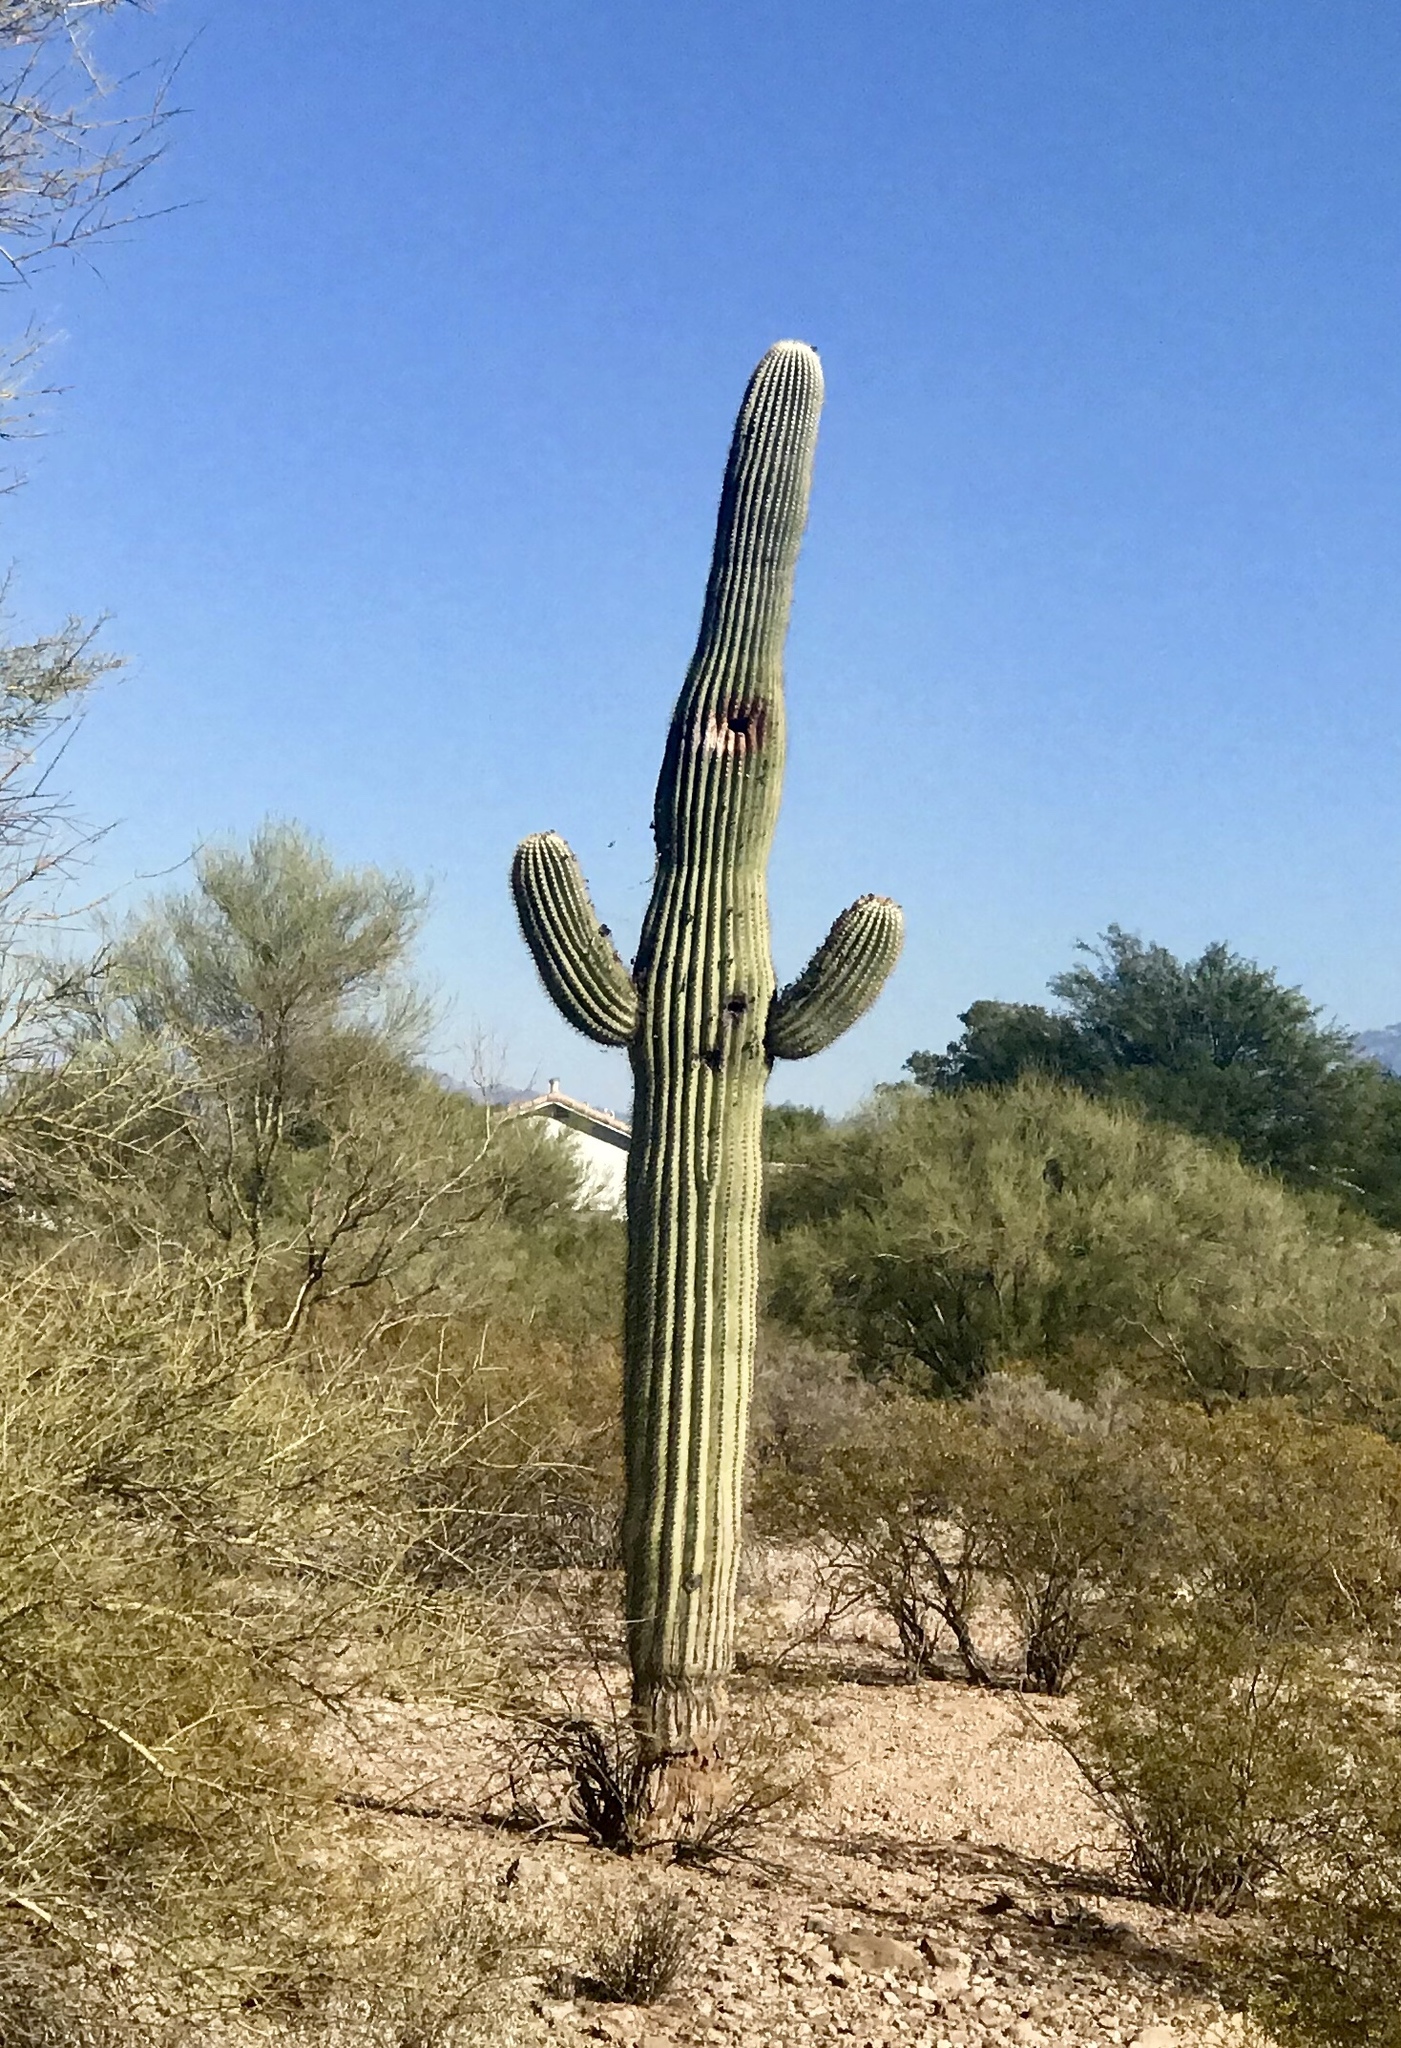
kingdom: Plantae
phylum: Tracheophyta
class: Magnoliopsida
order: Caryophyllales
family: Cactaceae
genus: Carnegiea
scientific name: Carnegiea gigantea
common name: Saguaro
